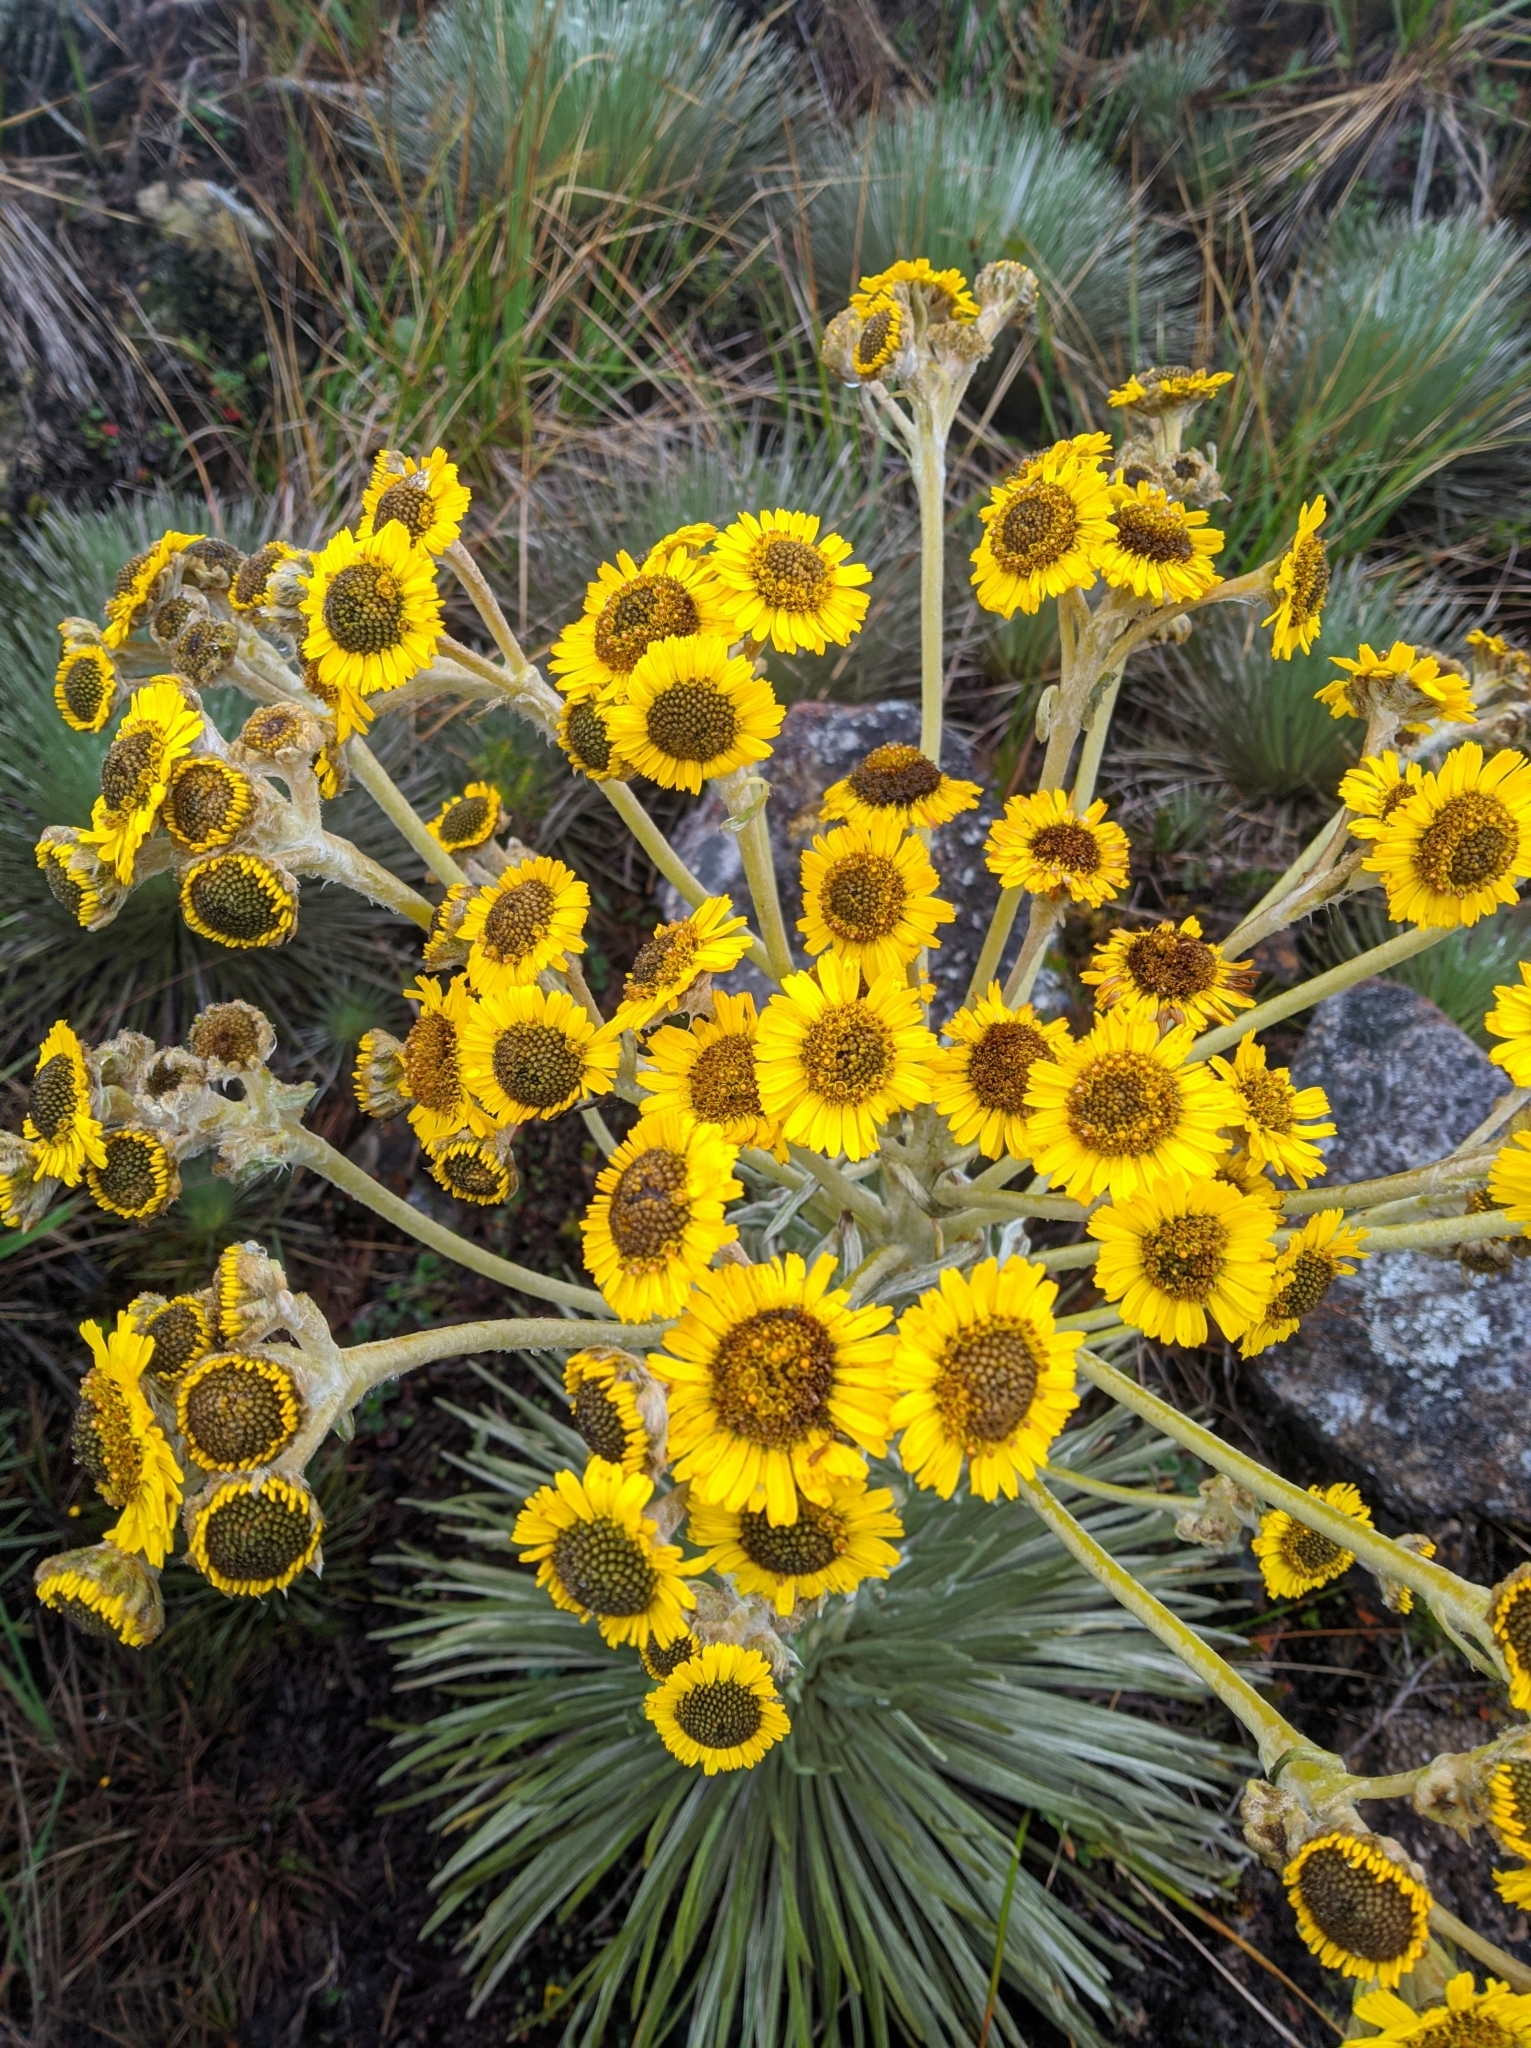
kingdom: Plantae
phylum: Tracheophyta
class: Magnoliopsida
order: Asterales
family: Asteraceae
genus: Espeletia
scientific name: Espeletia jabonensis
